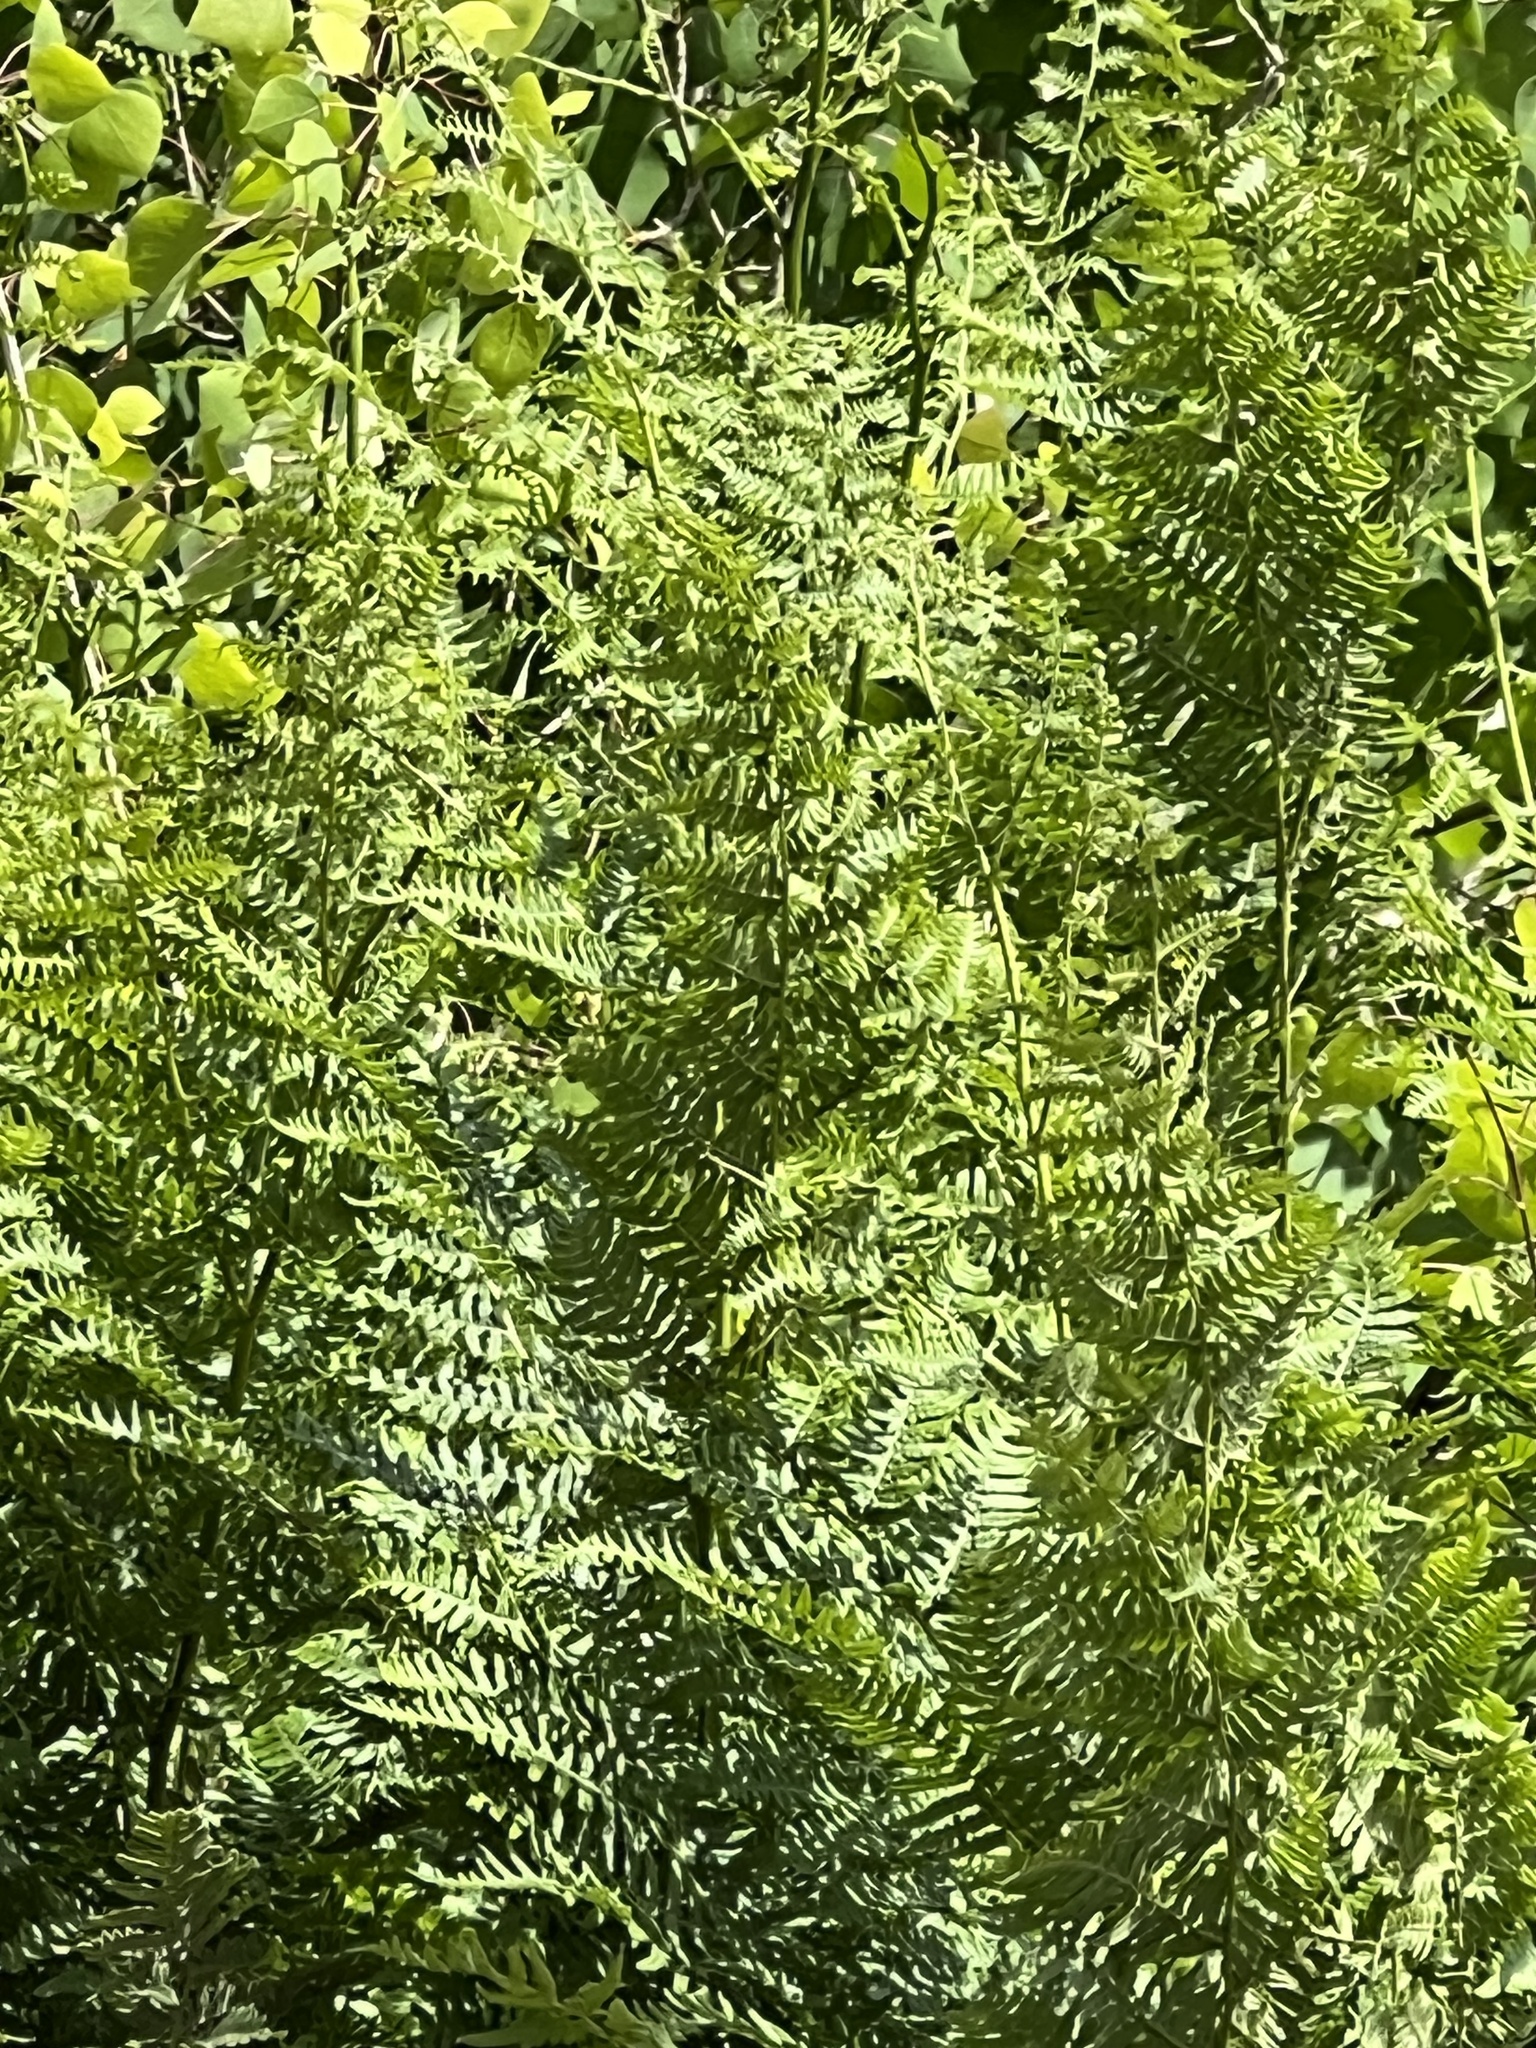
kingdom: Plantae
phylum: Tracheophyta
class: Polypodiopsida
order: Polypodiales
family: Dennstaedtiaceae
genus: Pteridium
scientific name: Pteridium aquilinum
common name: Bracken
